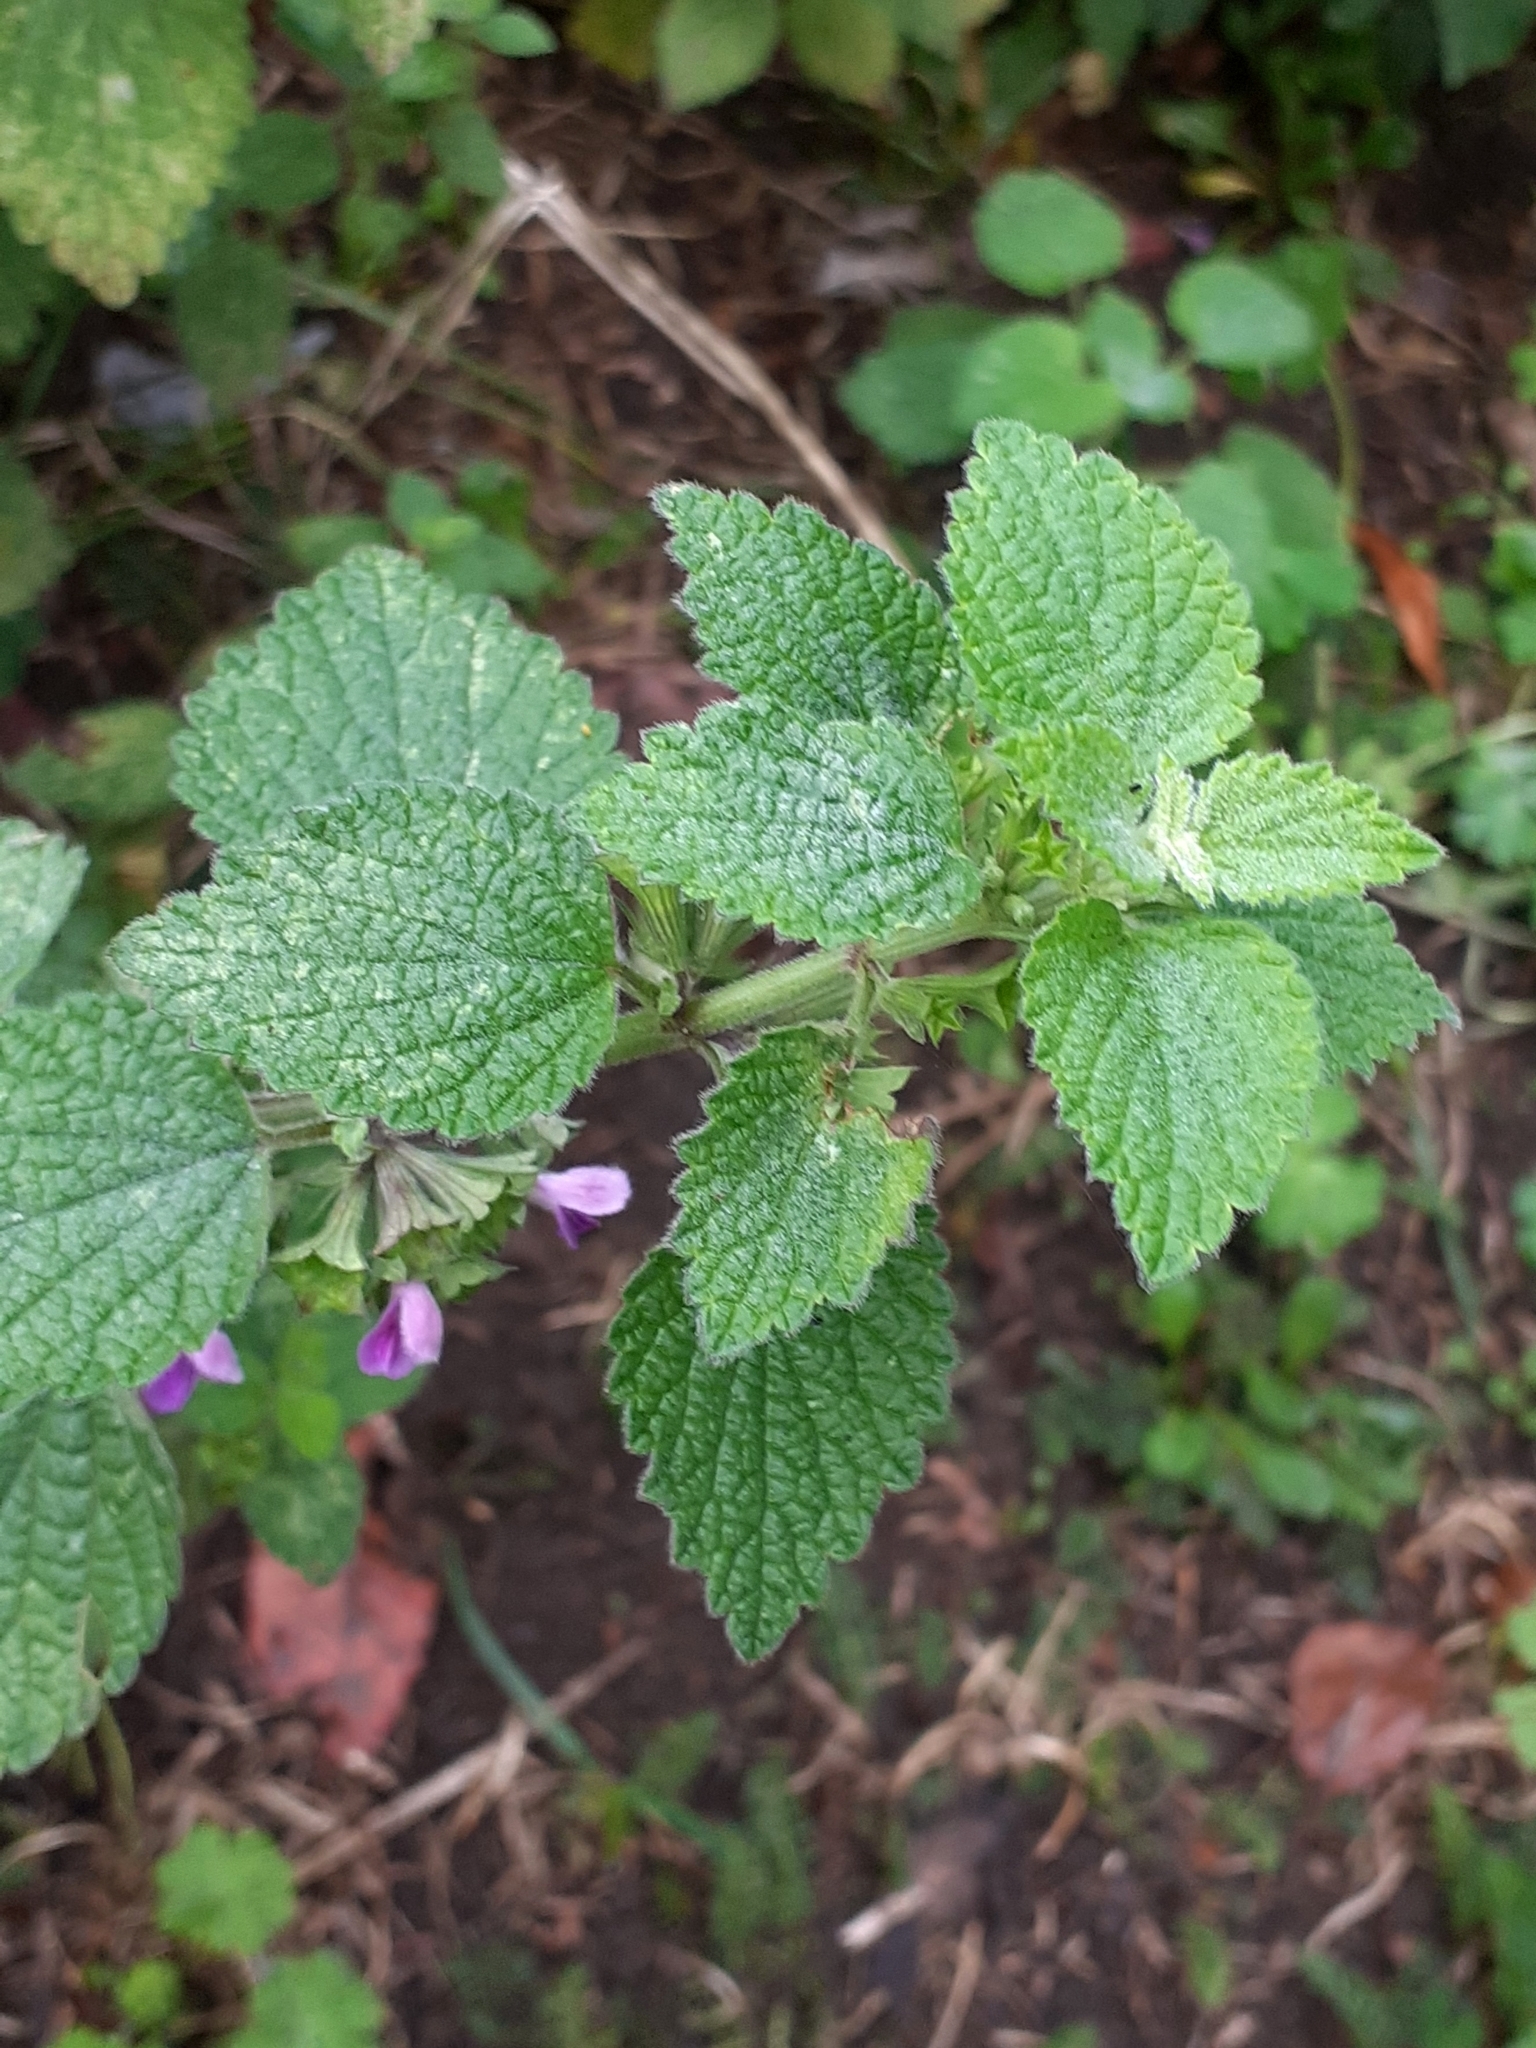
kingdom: Plantae
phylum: Tracheophyta
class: Magnoliopsida
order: Lamiales
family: Lamiaceae
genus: Ballota
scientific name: Ballota nigra
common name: Black horehound
